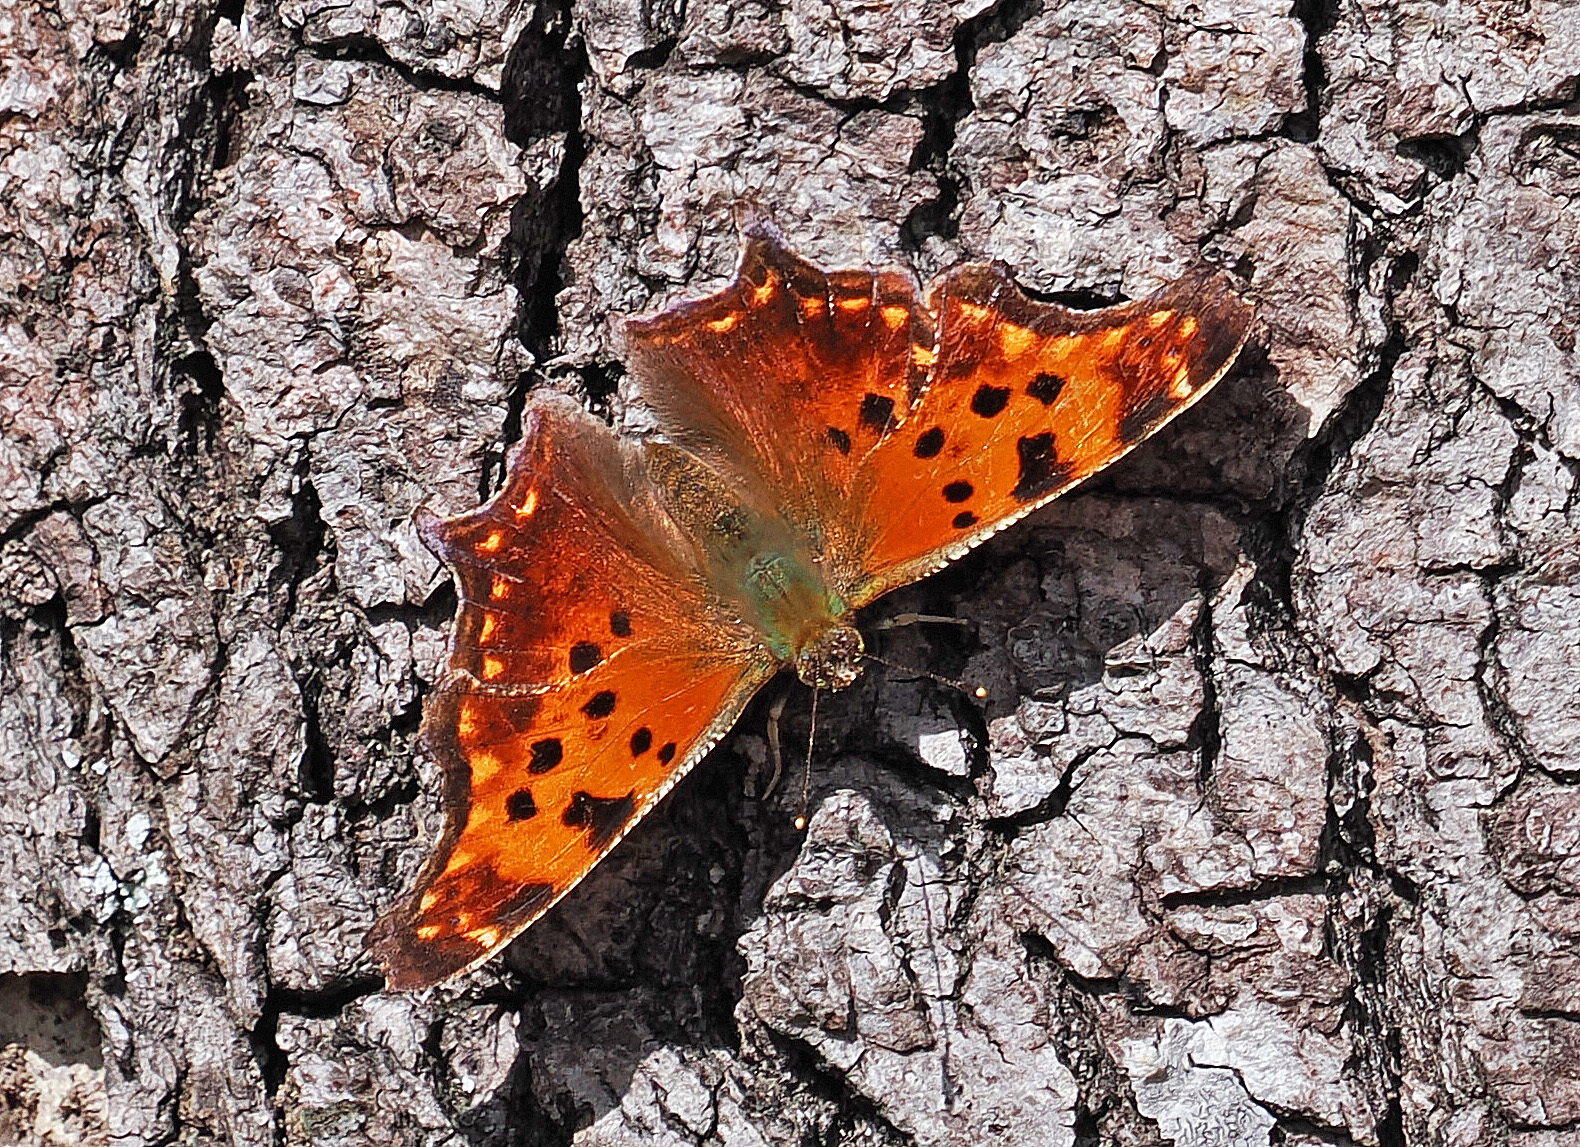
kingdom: Animalia
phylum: Arthropoda
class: Insecta
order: Lepidoptera
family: Nymphalidae
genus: Polygonia
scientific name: Polygonia comma
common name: Eastern comma
